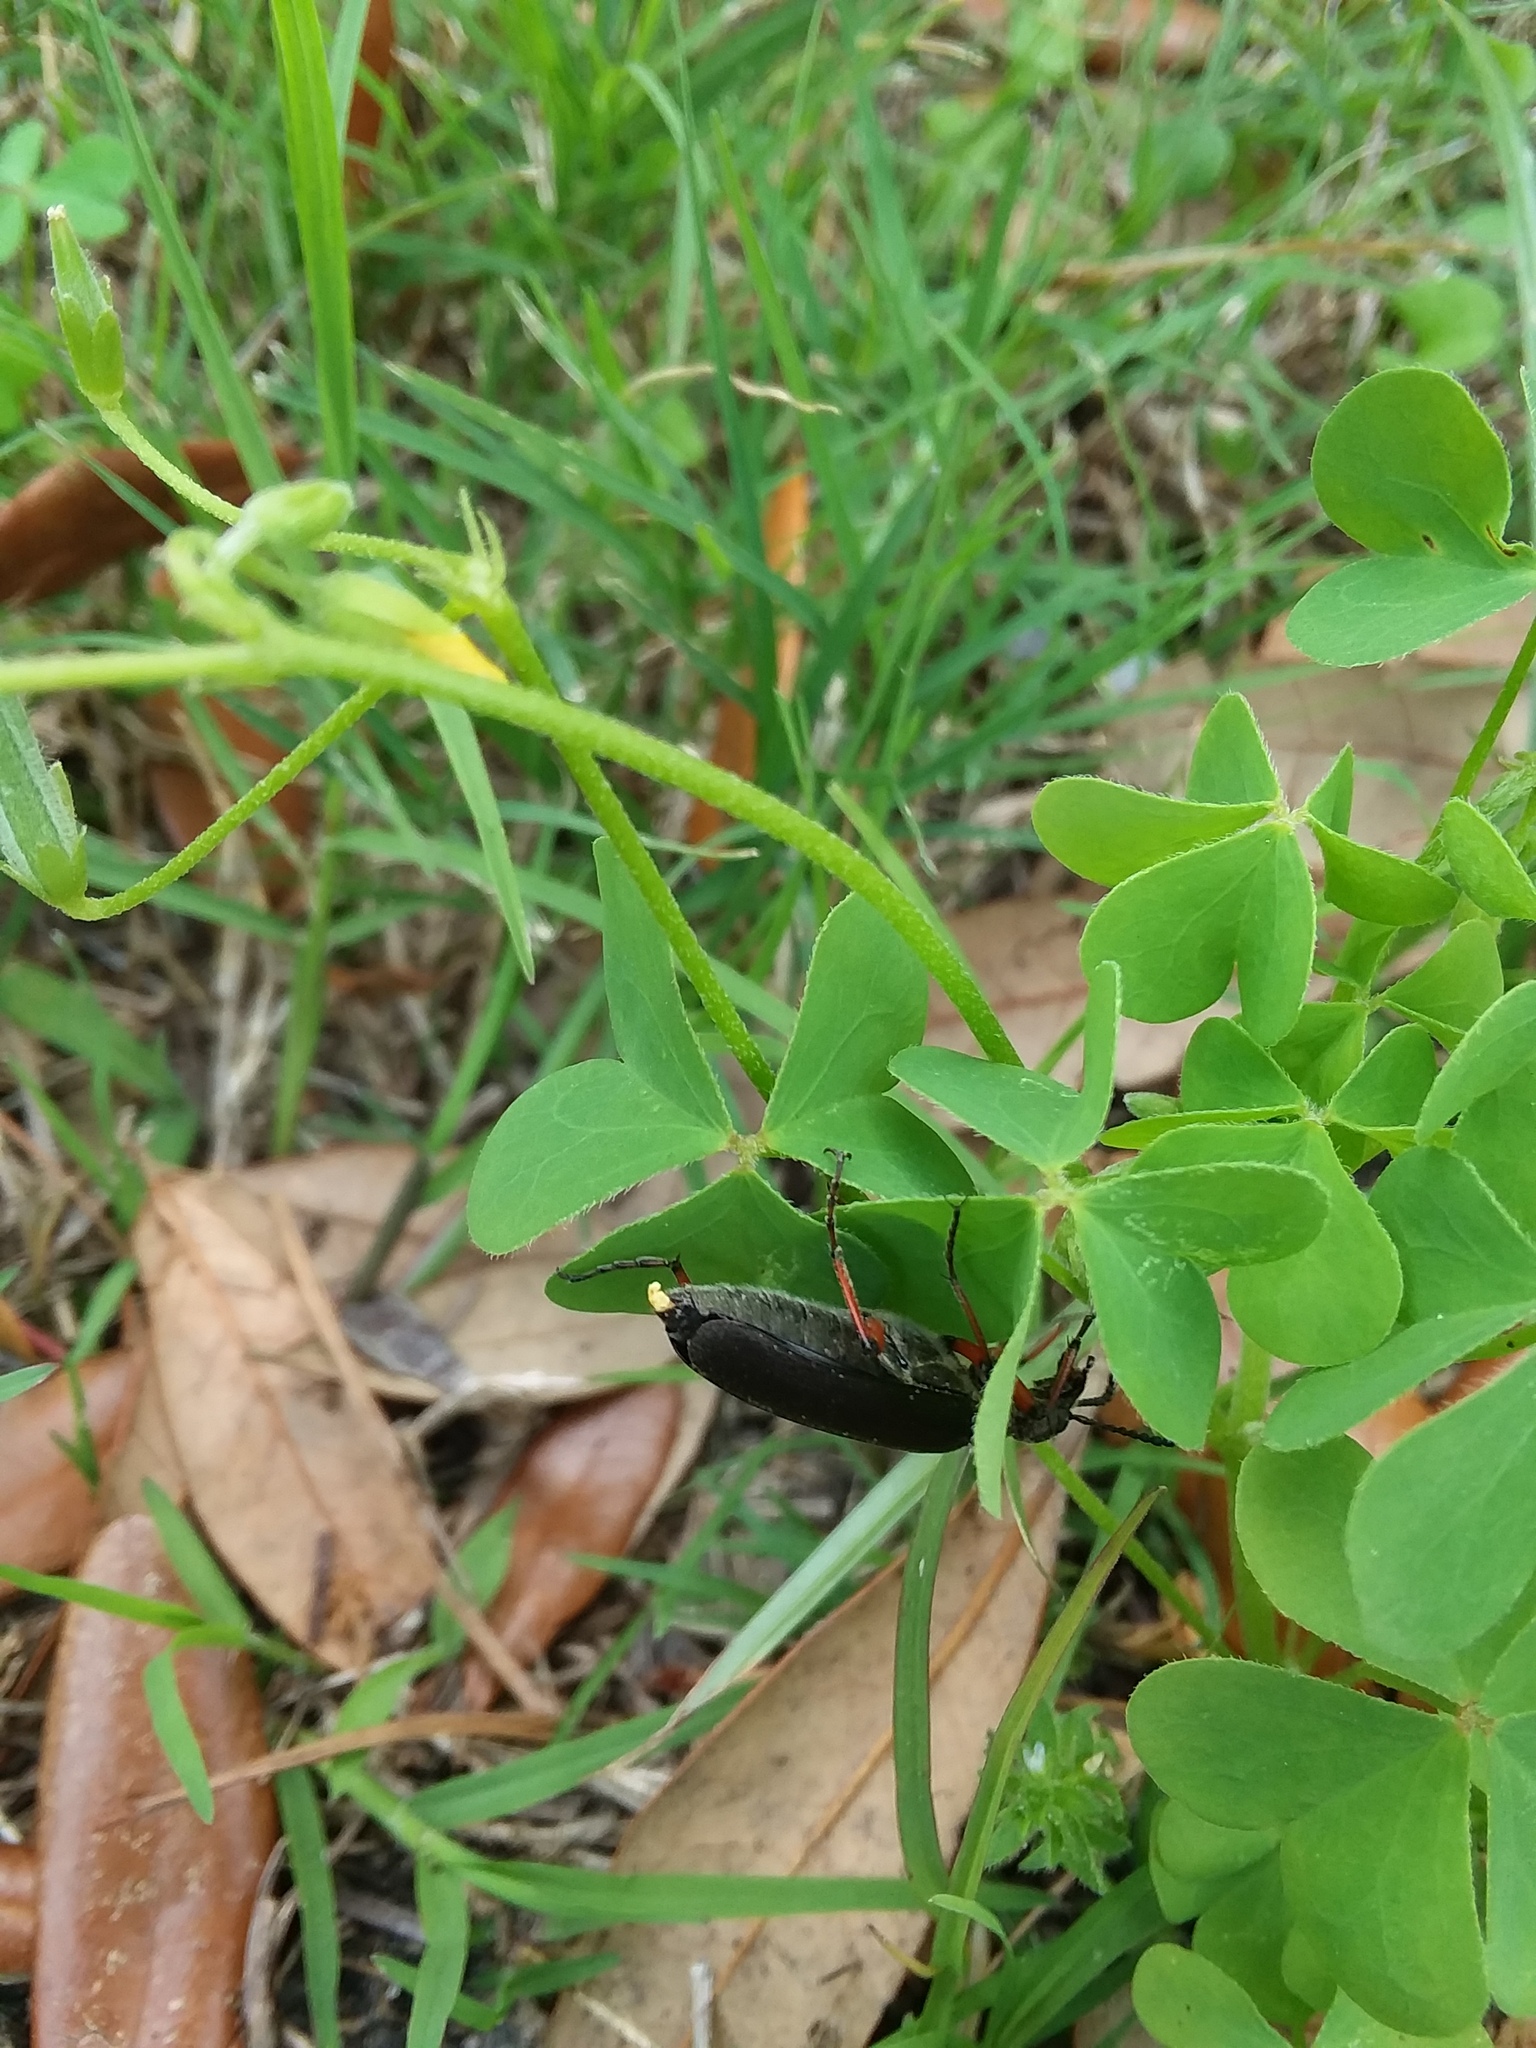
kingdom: Animalia
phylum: Arthropoda
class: Insecta
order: Coleoptera
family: Meloidae
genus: Lytta
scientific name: Lytta aenea
